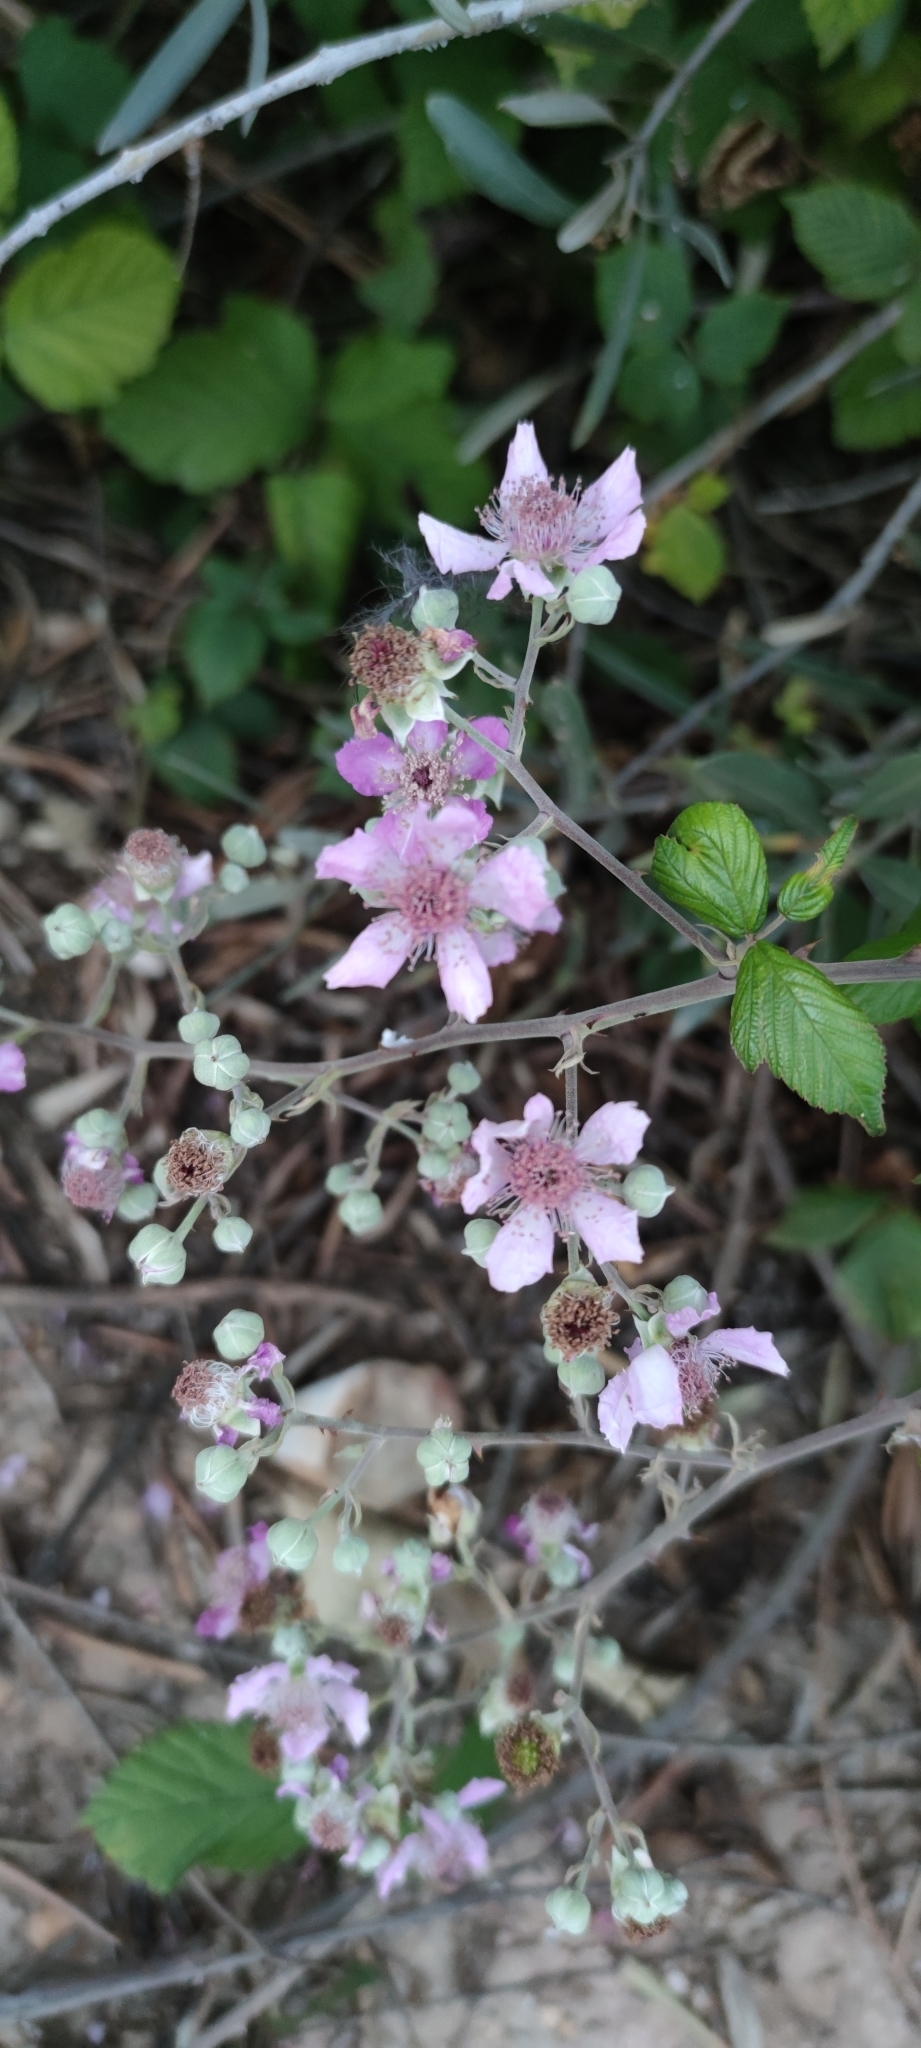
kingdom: Plantae
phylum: Tracheophyta
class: Magnoliopsida
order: Rosales
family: Rosaceae
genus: Rubus
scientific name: Rubus ulmifolius
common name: Elmleaf blackberry
